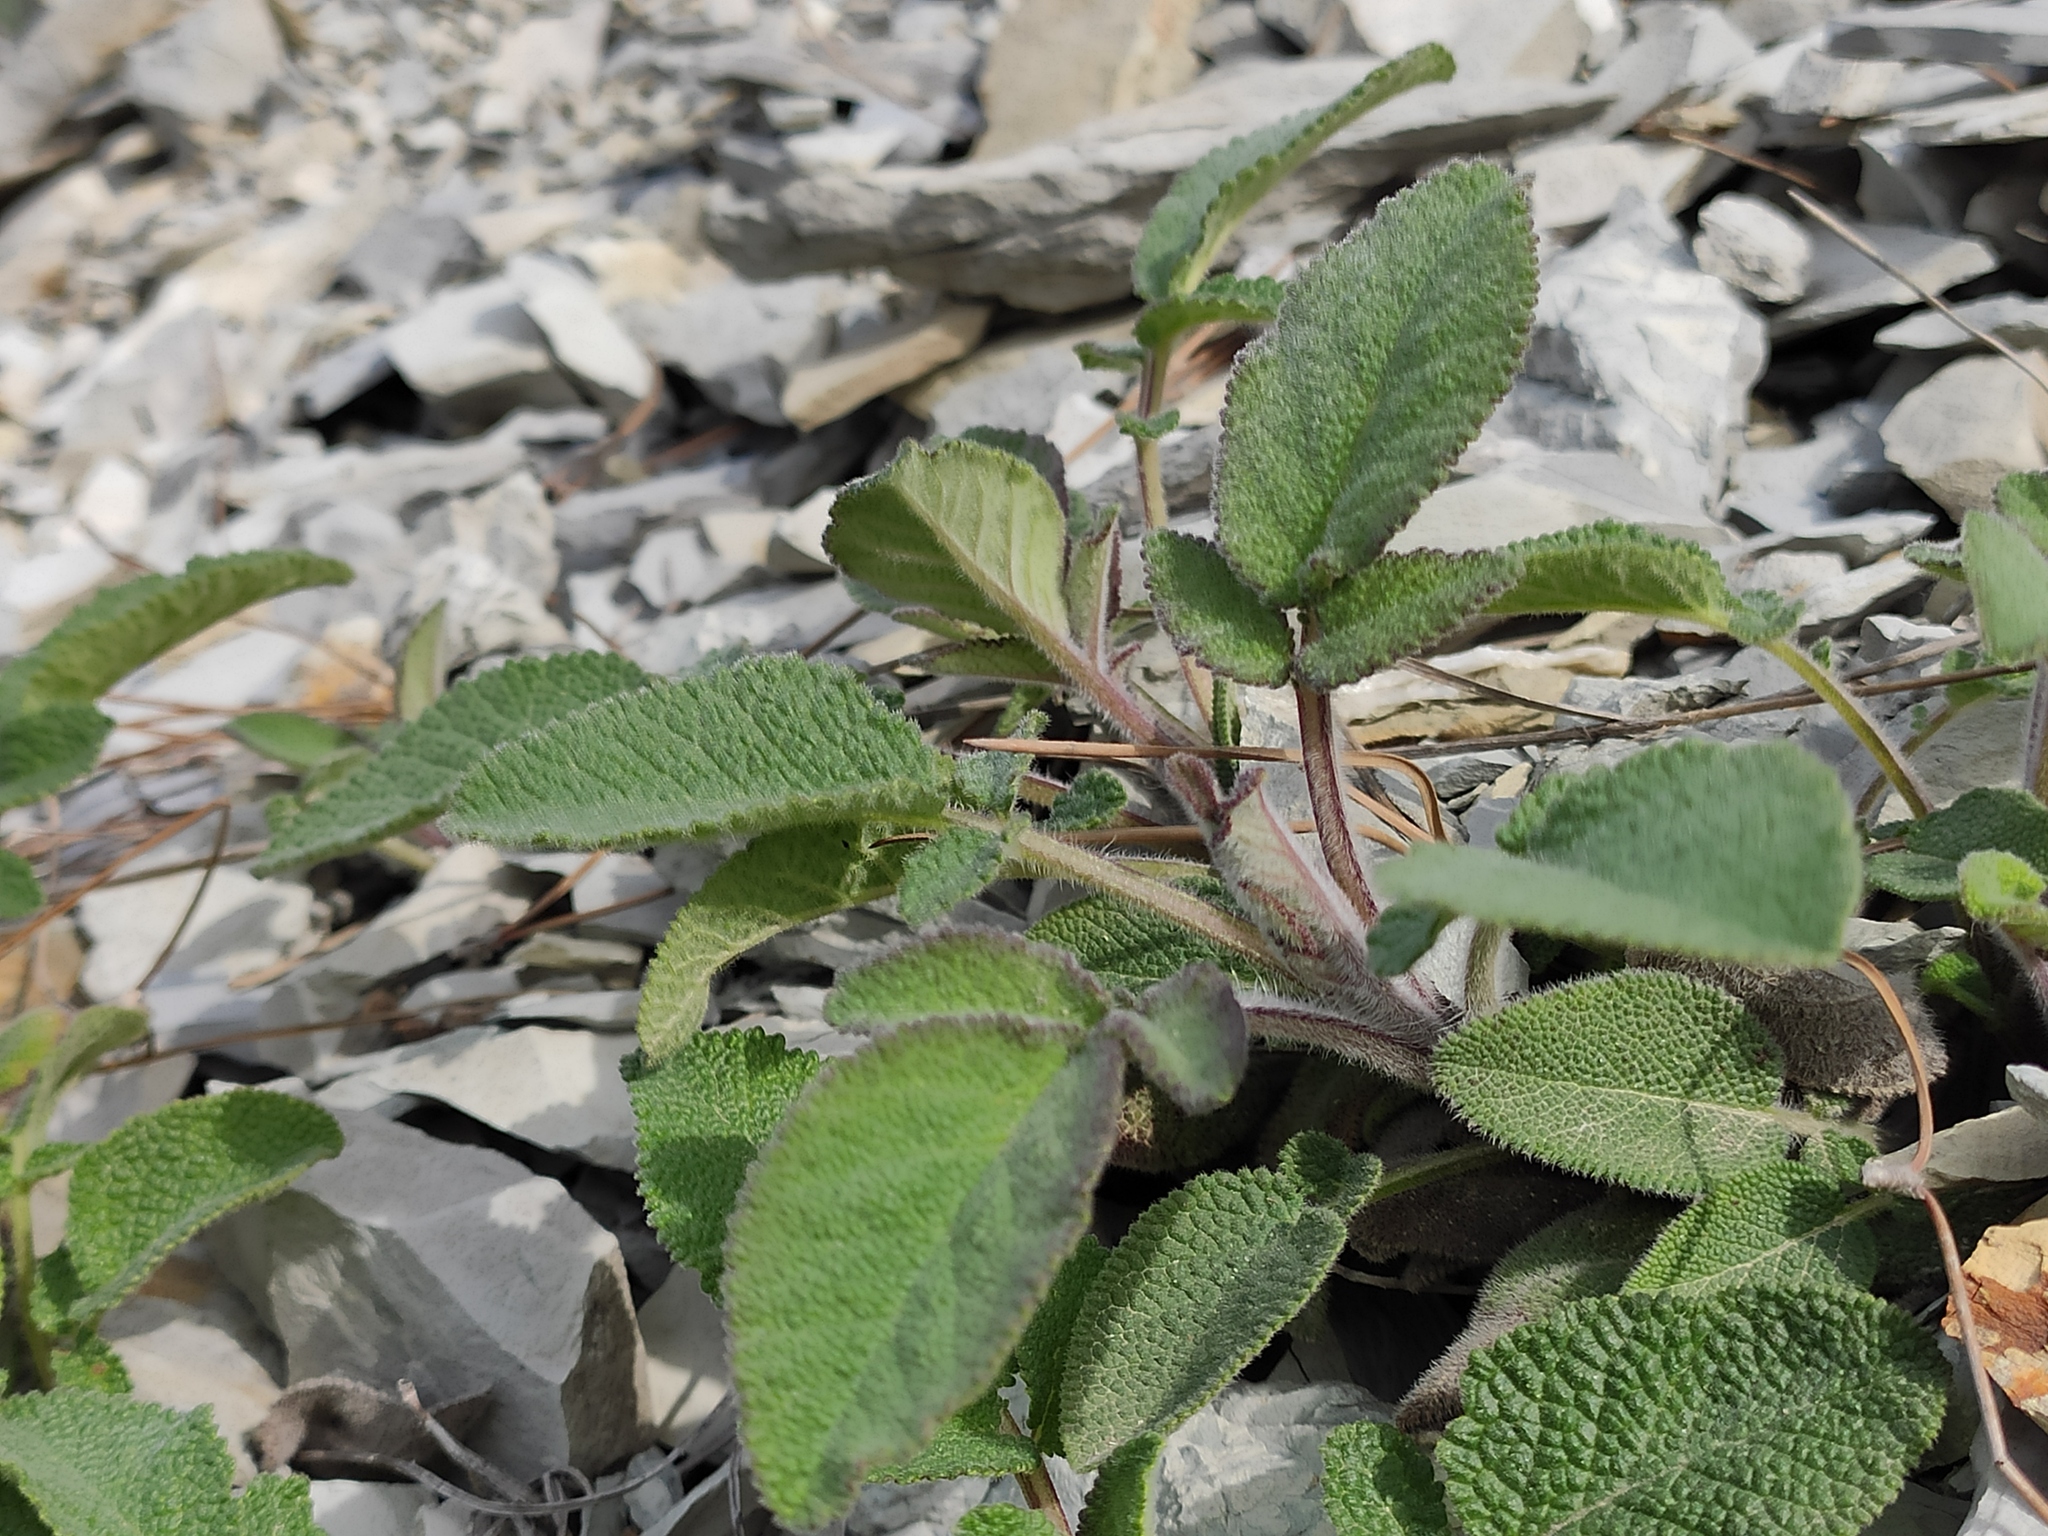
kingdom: Plantae
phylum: Tracheophyta
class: Magnoliopsida
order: Lamiales
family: Lamiaceae
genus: Salvia
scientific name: Salvia ringens
